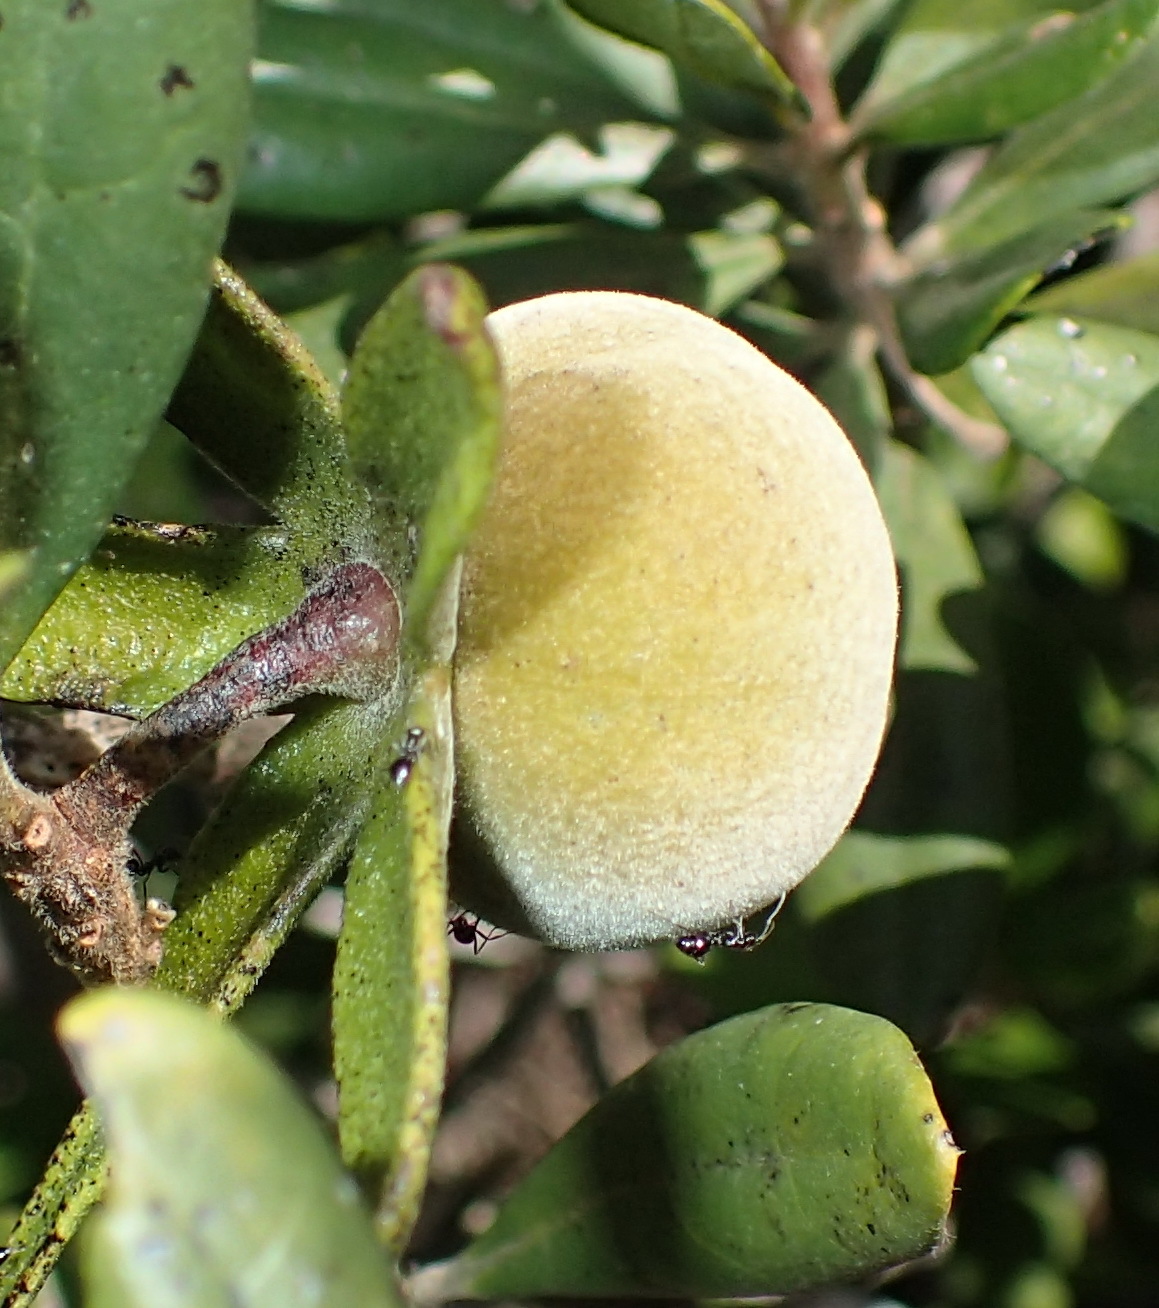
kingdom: Plantae
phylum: Tracheophyta
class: Magnoliopsida
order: Ericales
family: Ebenaceae
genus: Diospyros
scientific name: Diospyros dichrophylla
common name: Common star-apple
